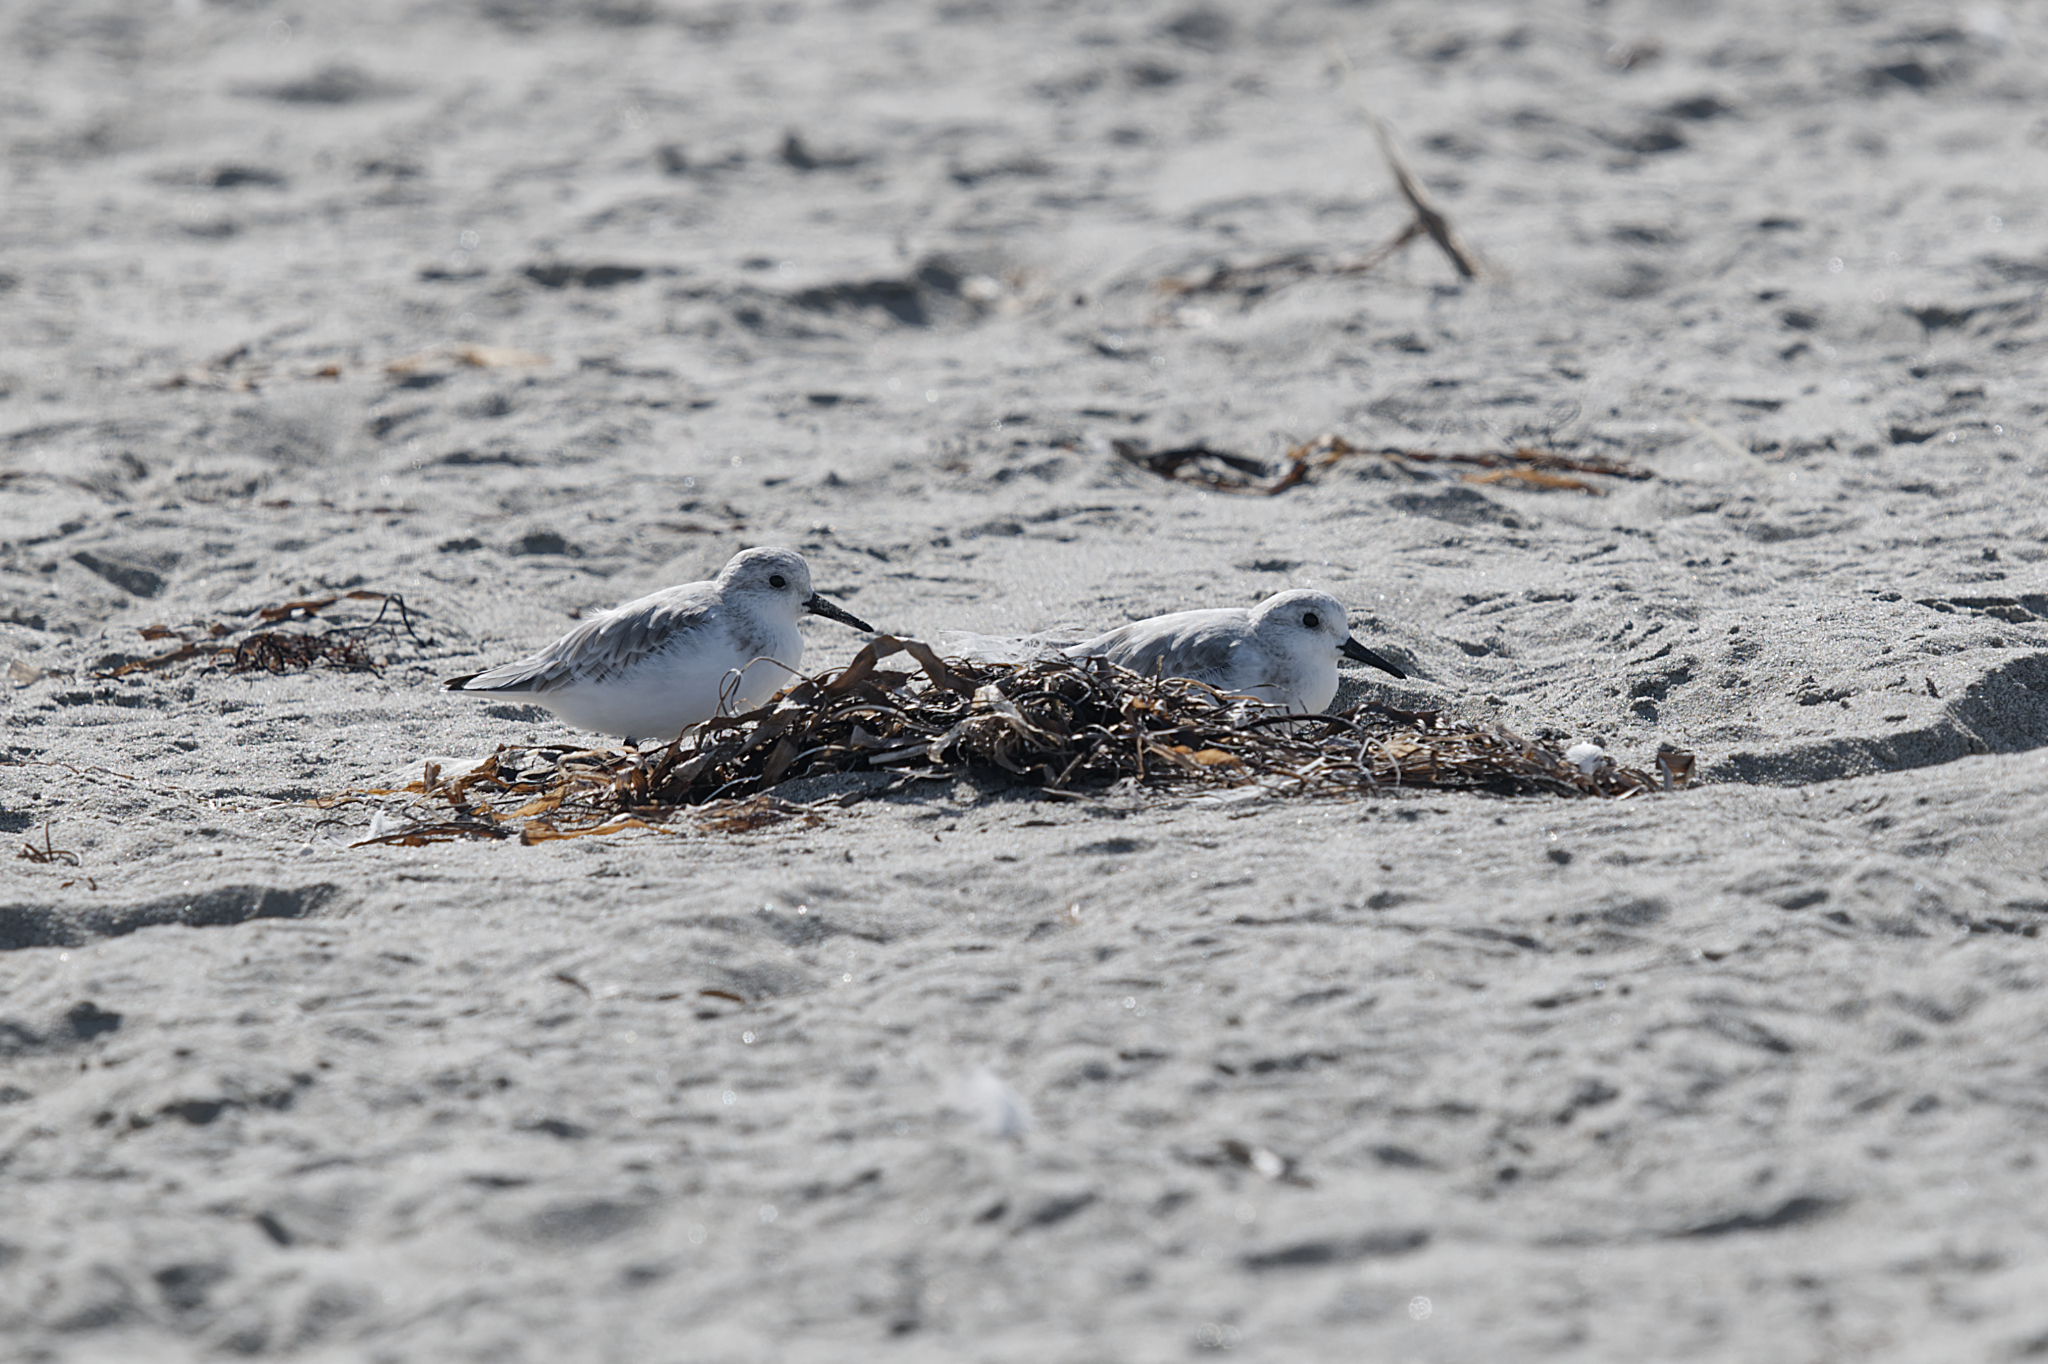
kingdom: Animalia
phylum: Chordata
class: Aves
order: Charadriiformes
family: Scolopacidae
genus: Calidris
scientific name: Calidris alba
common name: Sanderling
